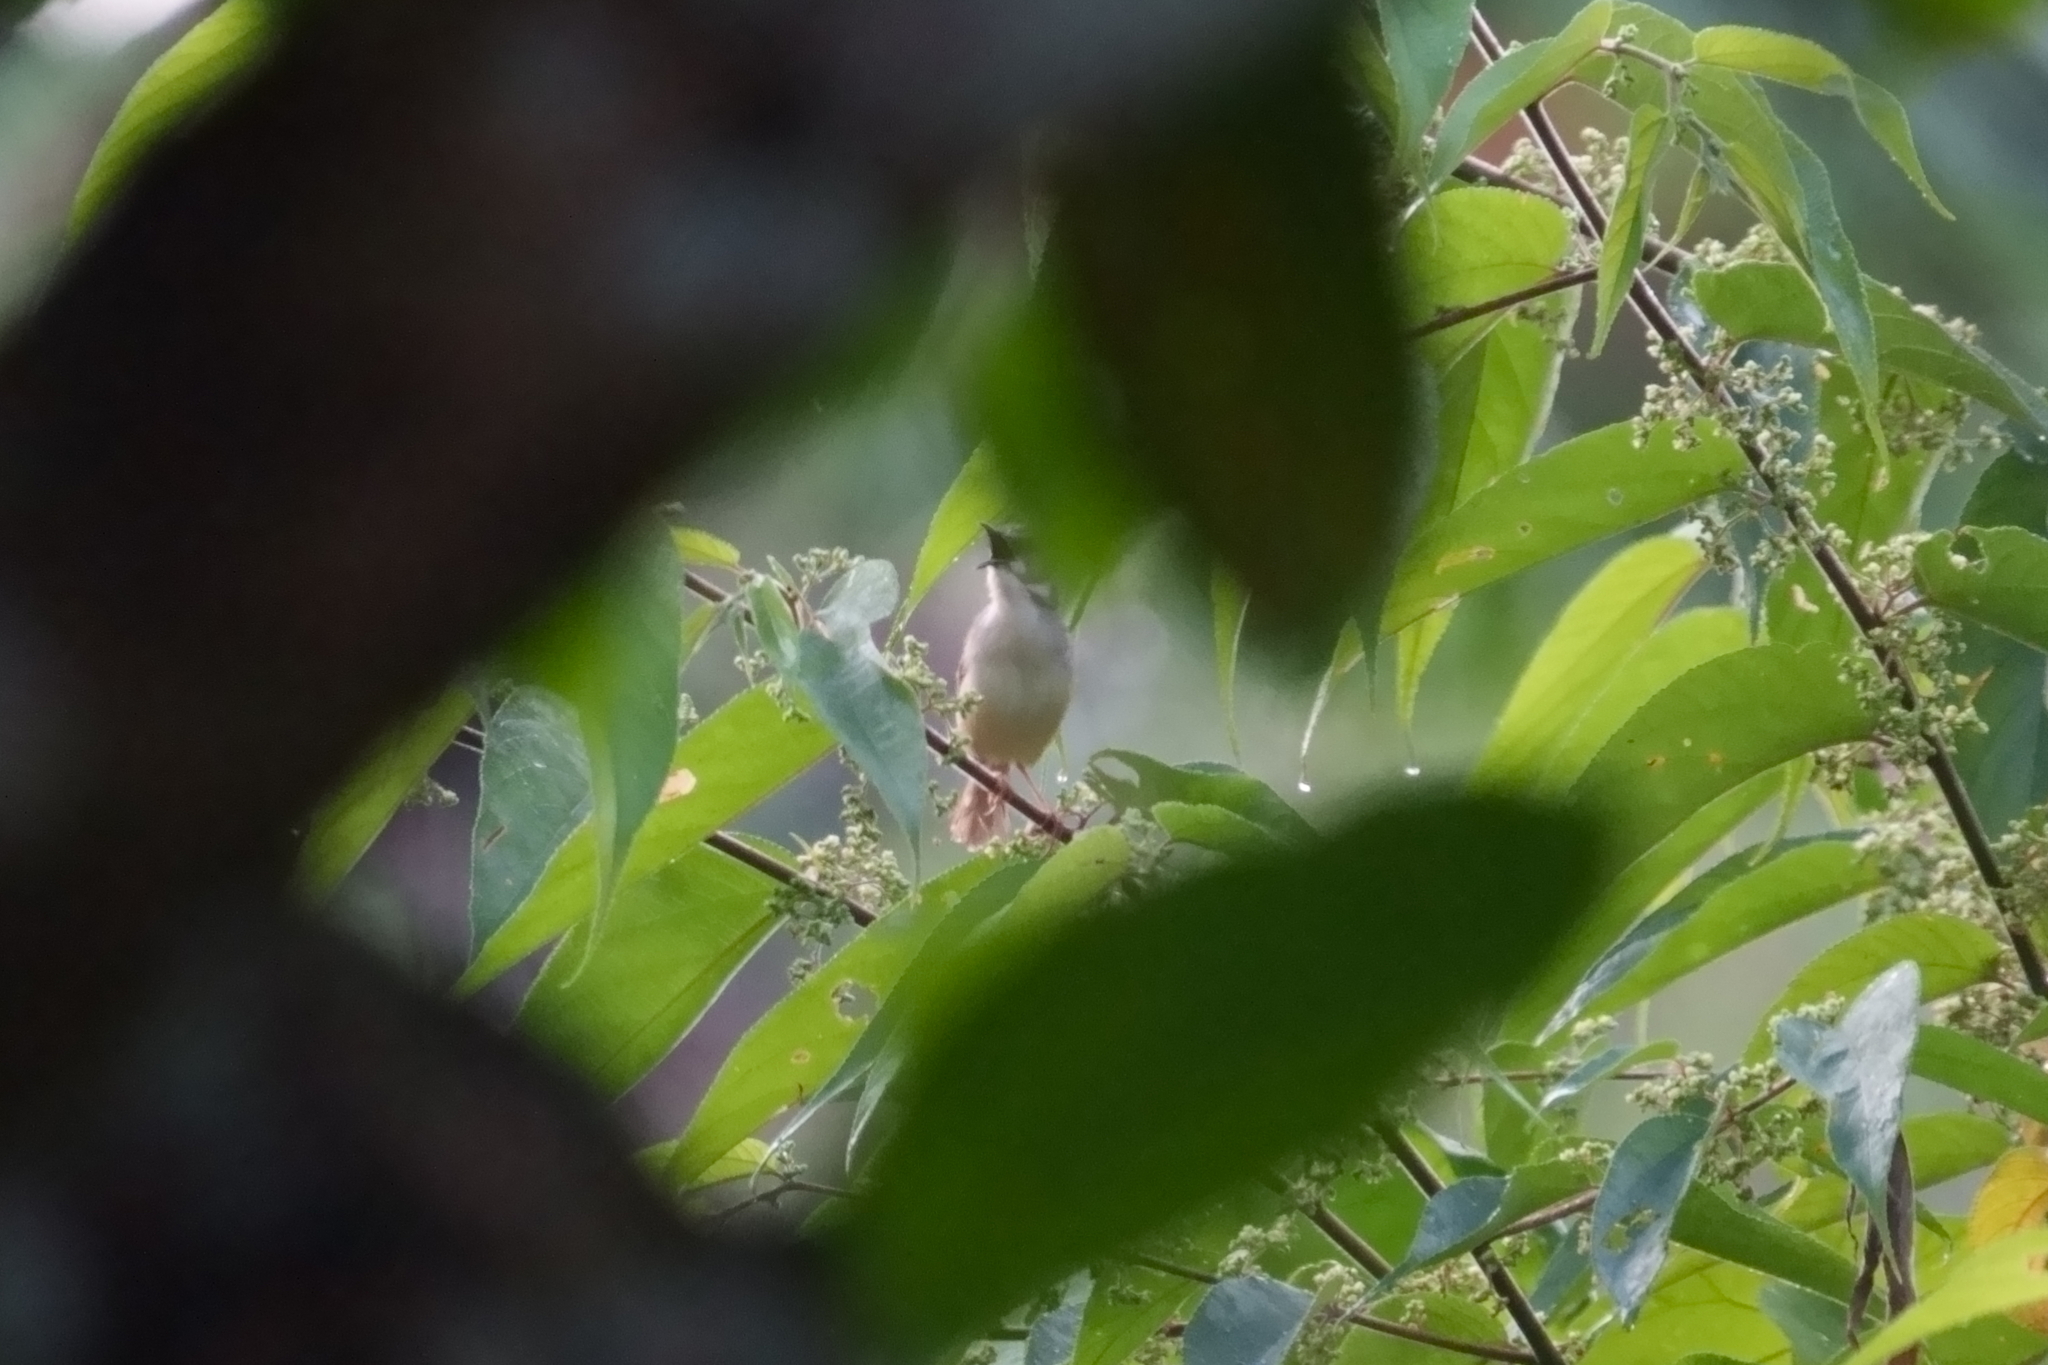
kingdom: Animalia
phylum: Chordata
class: Aves
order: Passeriformes
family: Cisticolidae
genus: Prinia
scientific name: Prinia flaviventris
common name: Yellow-bellied prinia
